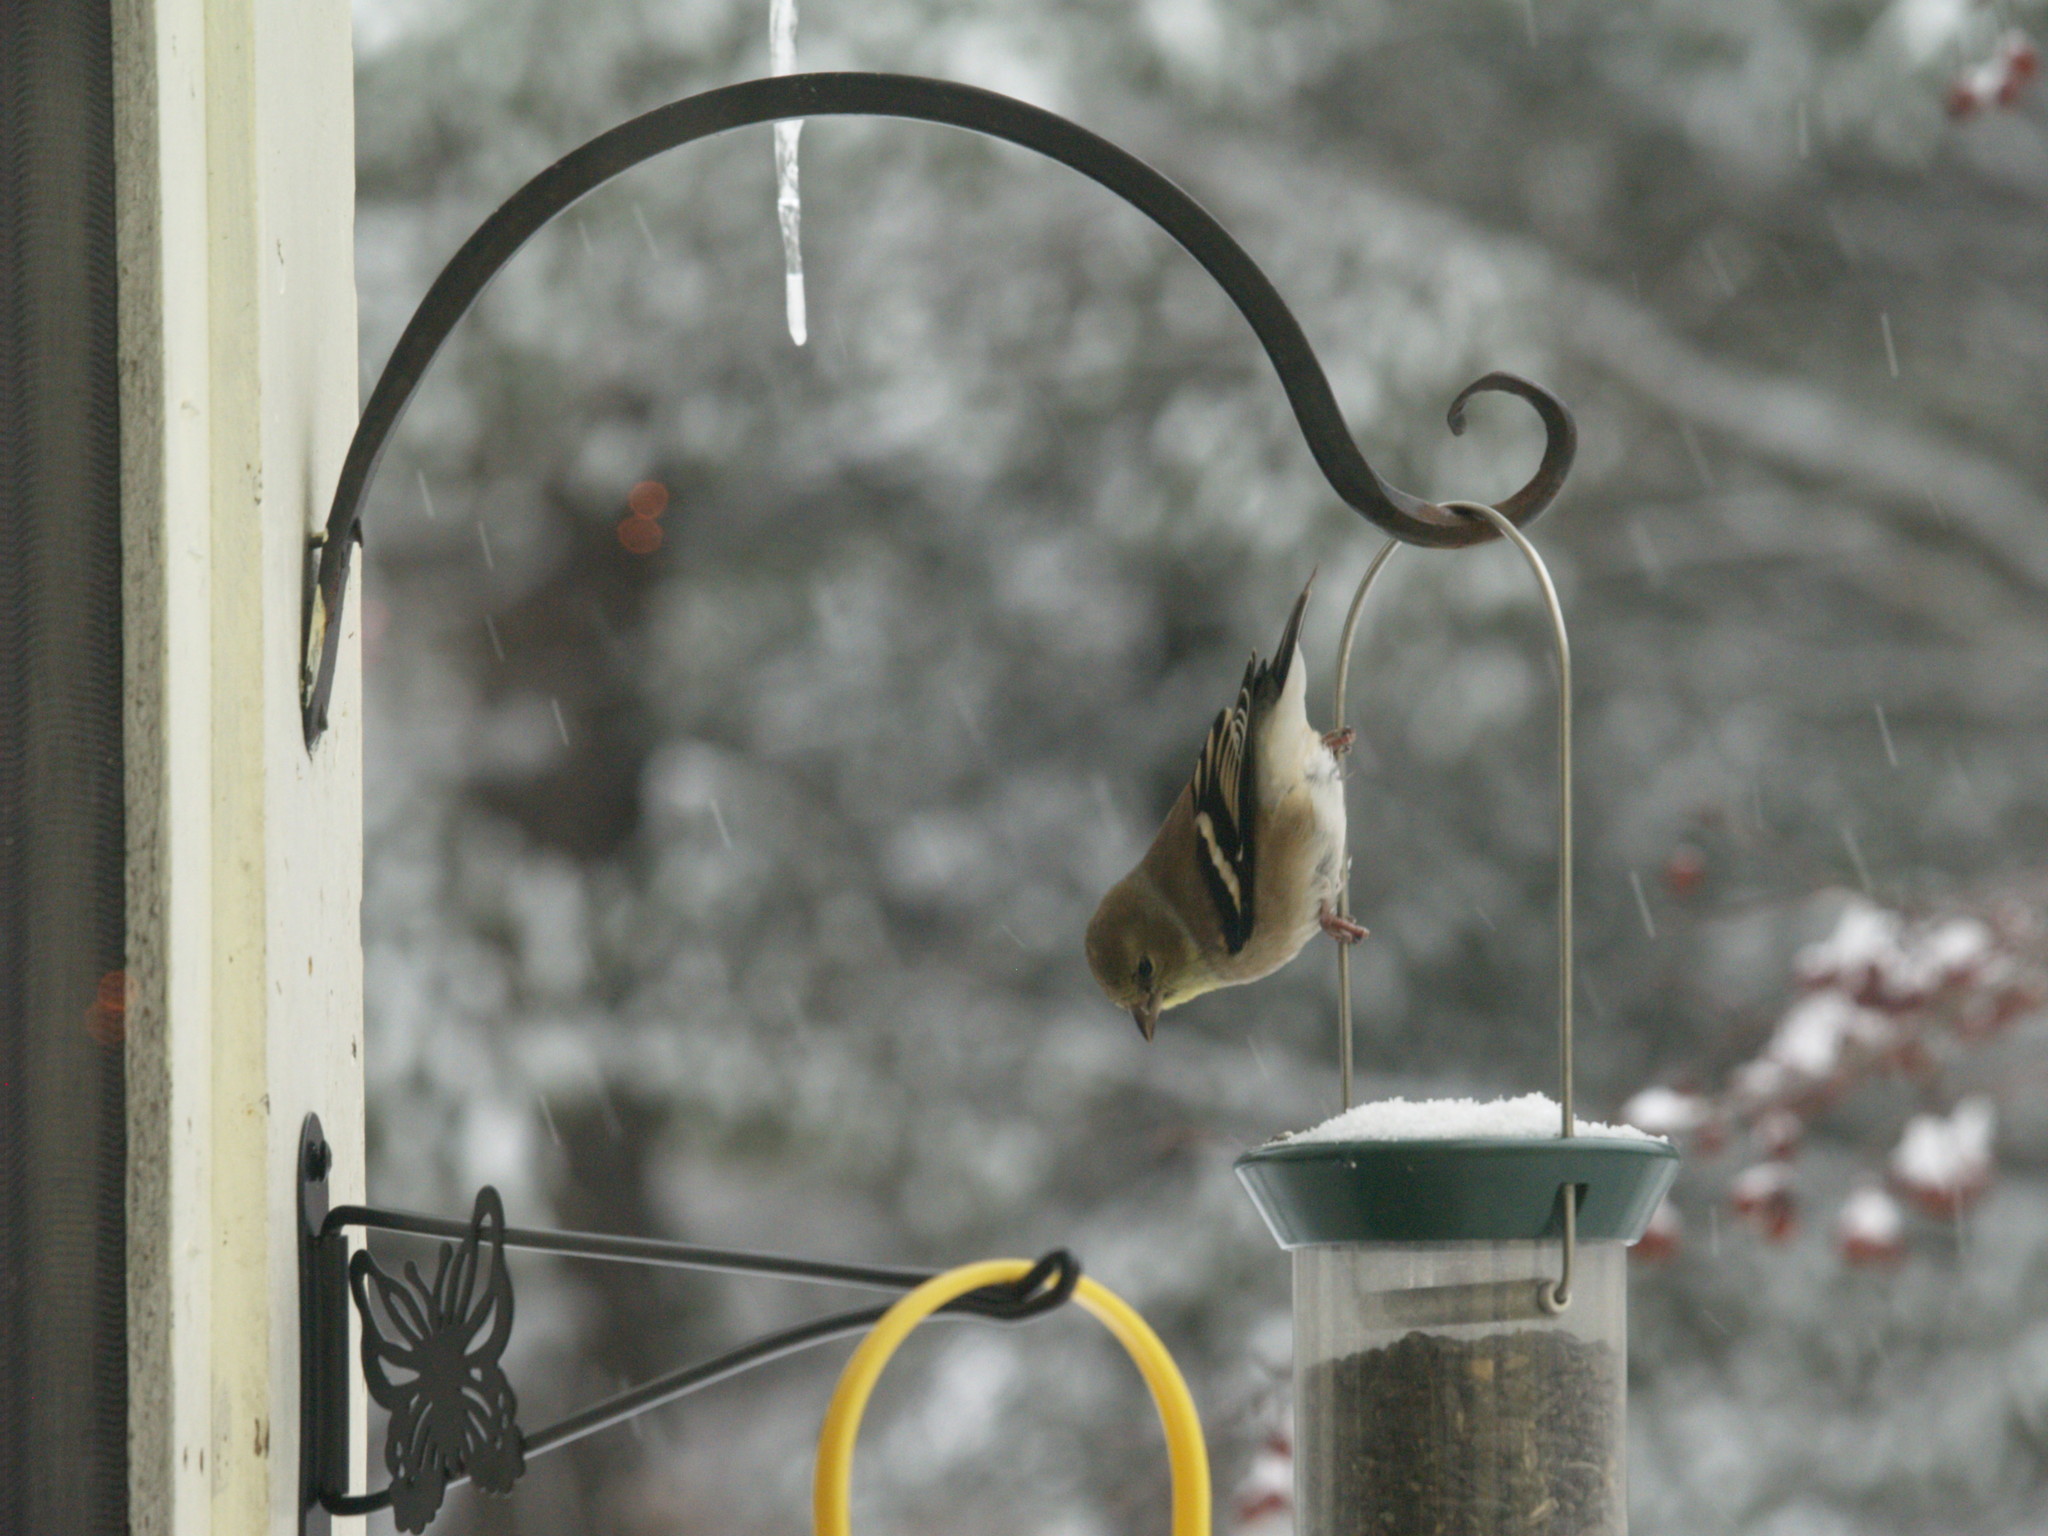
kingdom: Animalia
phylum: Chordata
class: Aves
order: Passeriformes
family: Fringillidae
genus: Spinus
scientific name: Spinus tristis
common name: American goldfinch
